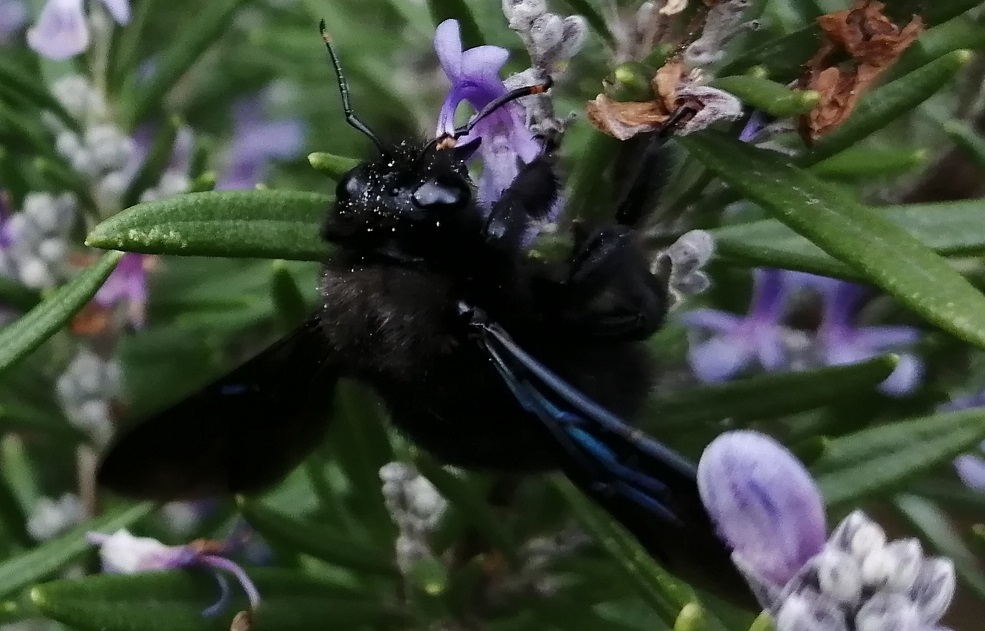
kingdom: Animalia
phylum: Arthropoda
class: Insecta
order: Hymenoptera
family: Apidae
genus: Xylocopa
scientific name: Xylocopa violacea
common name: Violet carpenter bee
